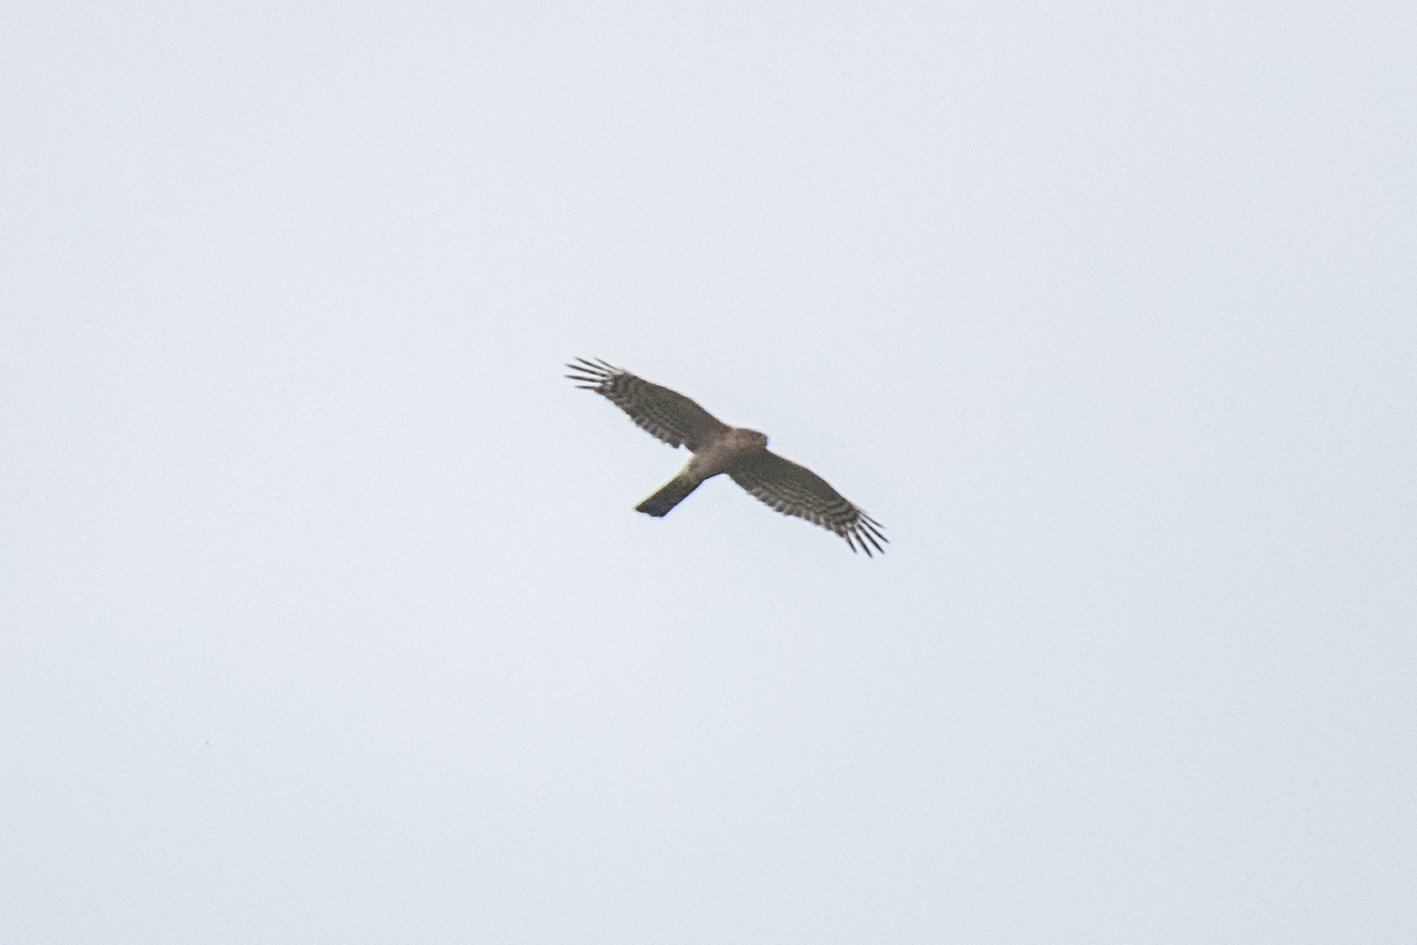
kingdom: Animalia
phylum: Chordata
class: Aves
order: Accipitriformes
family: Accipitridae
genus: Accipiter
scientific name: Accipiter nisus
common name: Eurasian sparrowhawk
